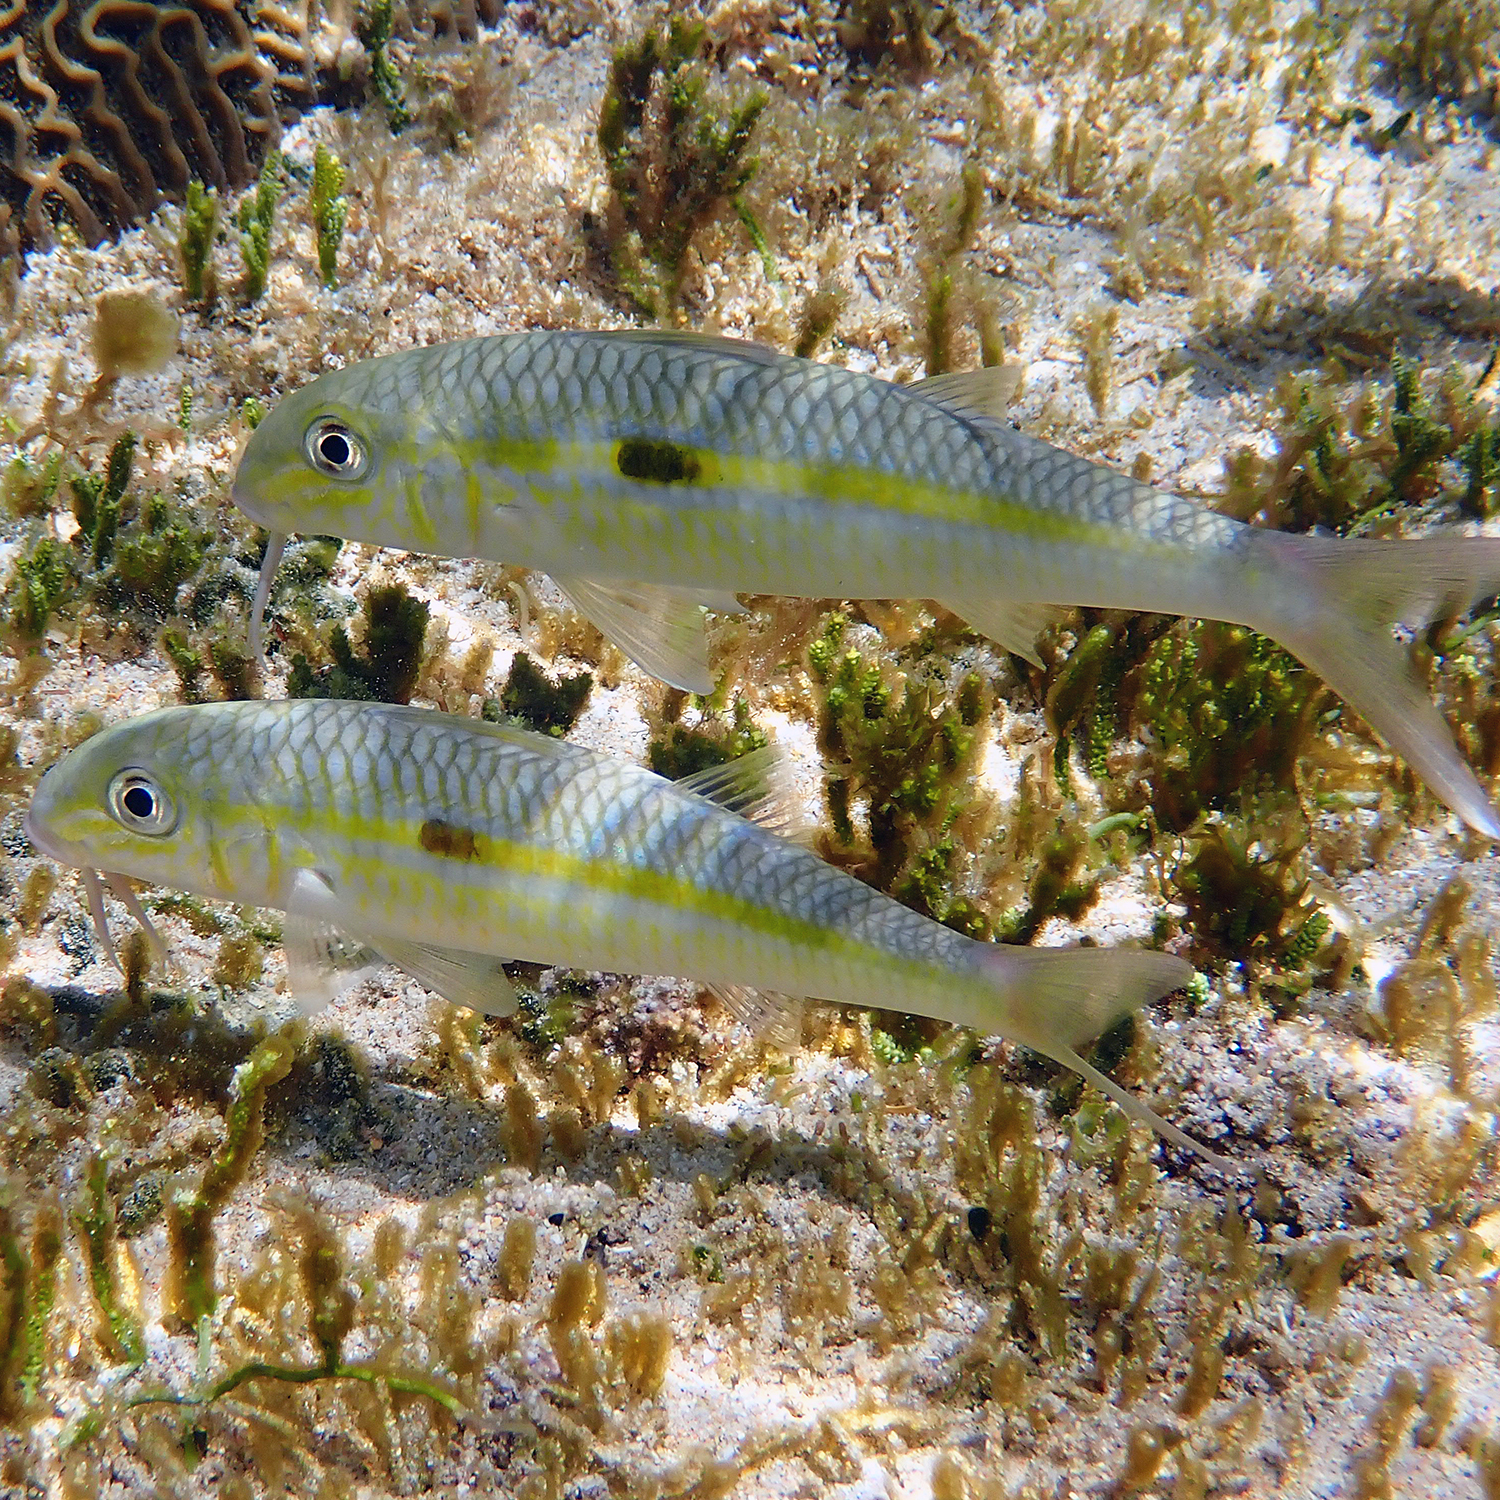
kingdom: Animalia
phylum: Chordata
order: Perciformes
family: Mullidae
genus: Mulloidichthys
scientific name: Mulloidichthys flavolineatus
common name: Yellowstripe goatfish
